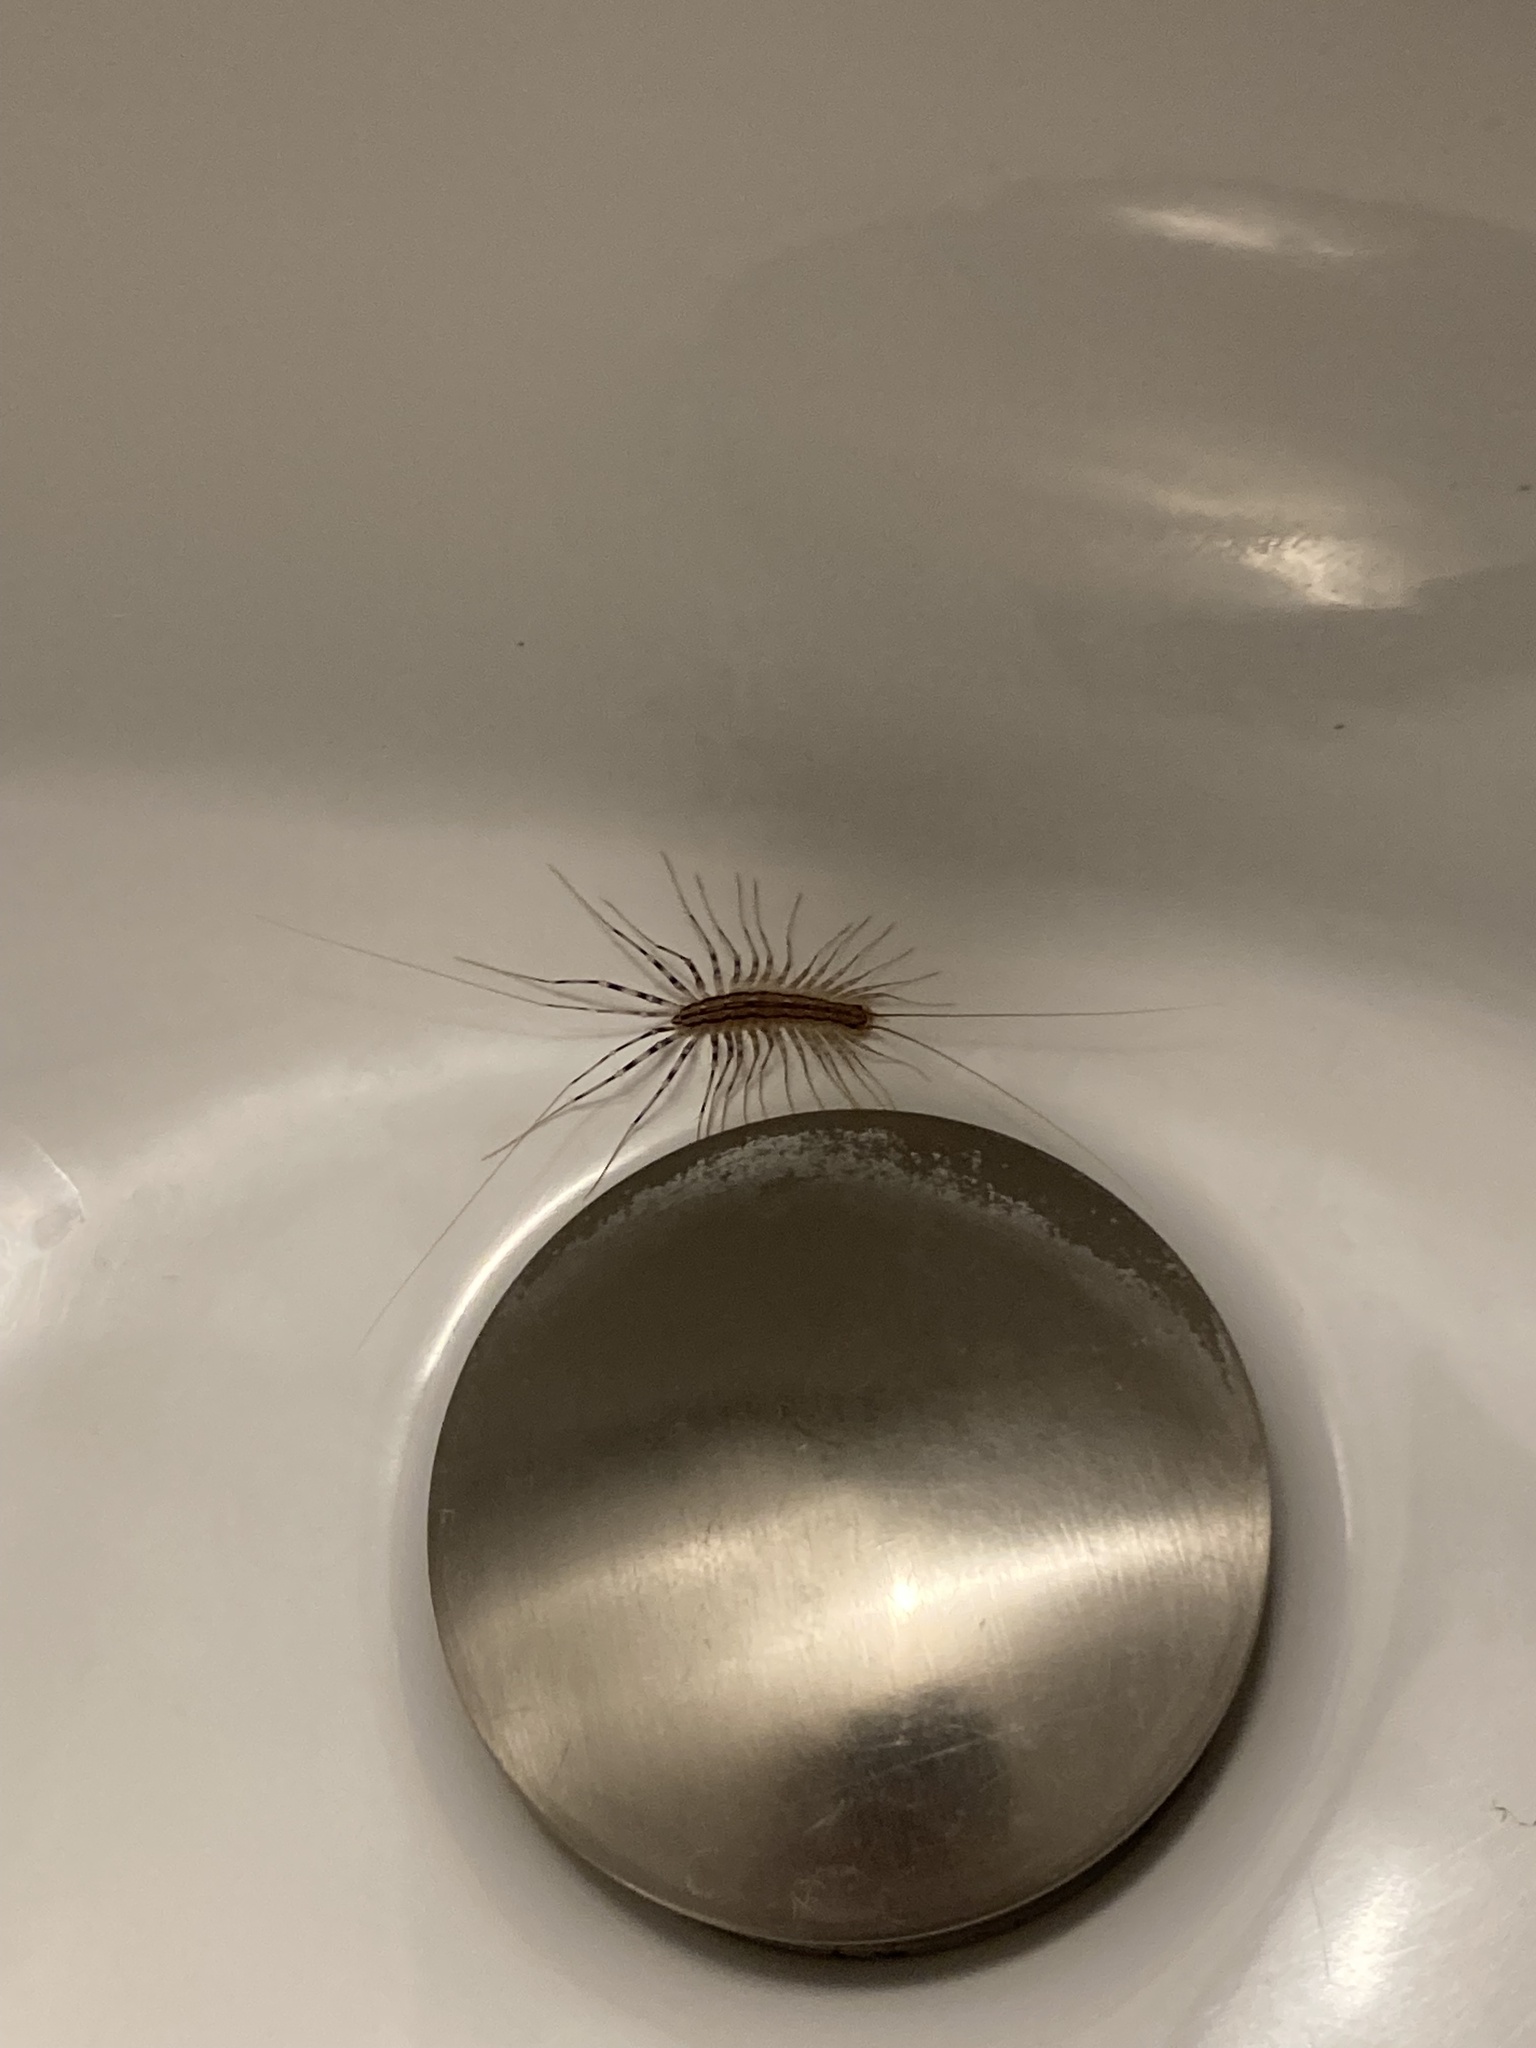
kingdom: Animalia
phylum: Arthropoda
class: Chilopoda
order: Scutigeromorpha
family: Scutigeridae
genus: Scutigera
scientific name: Scutigera coleoptrata
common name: House centipede
